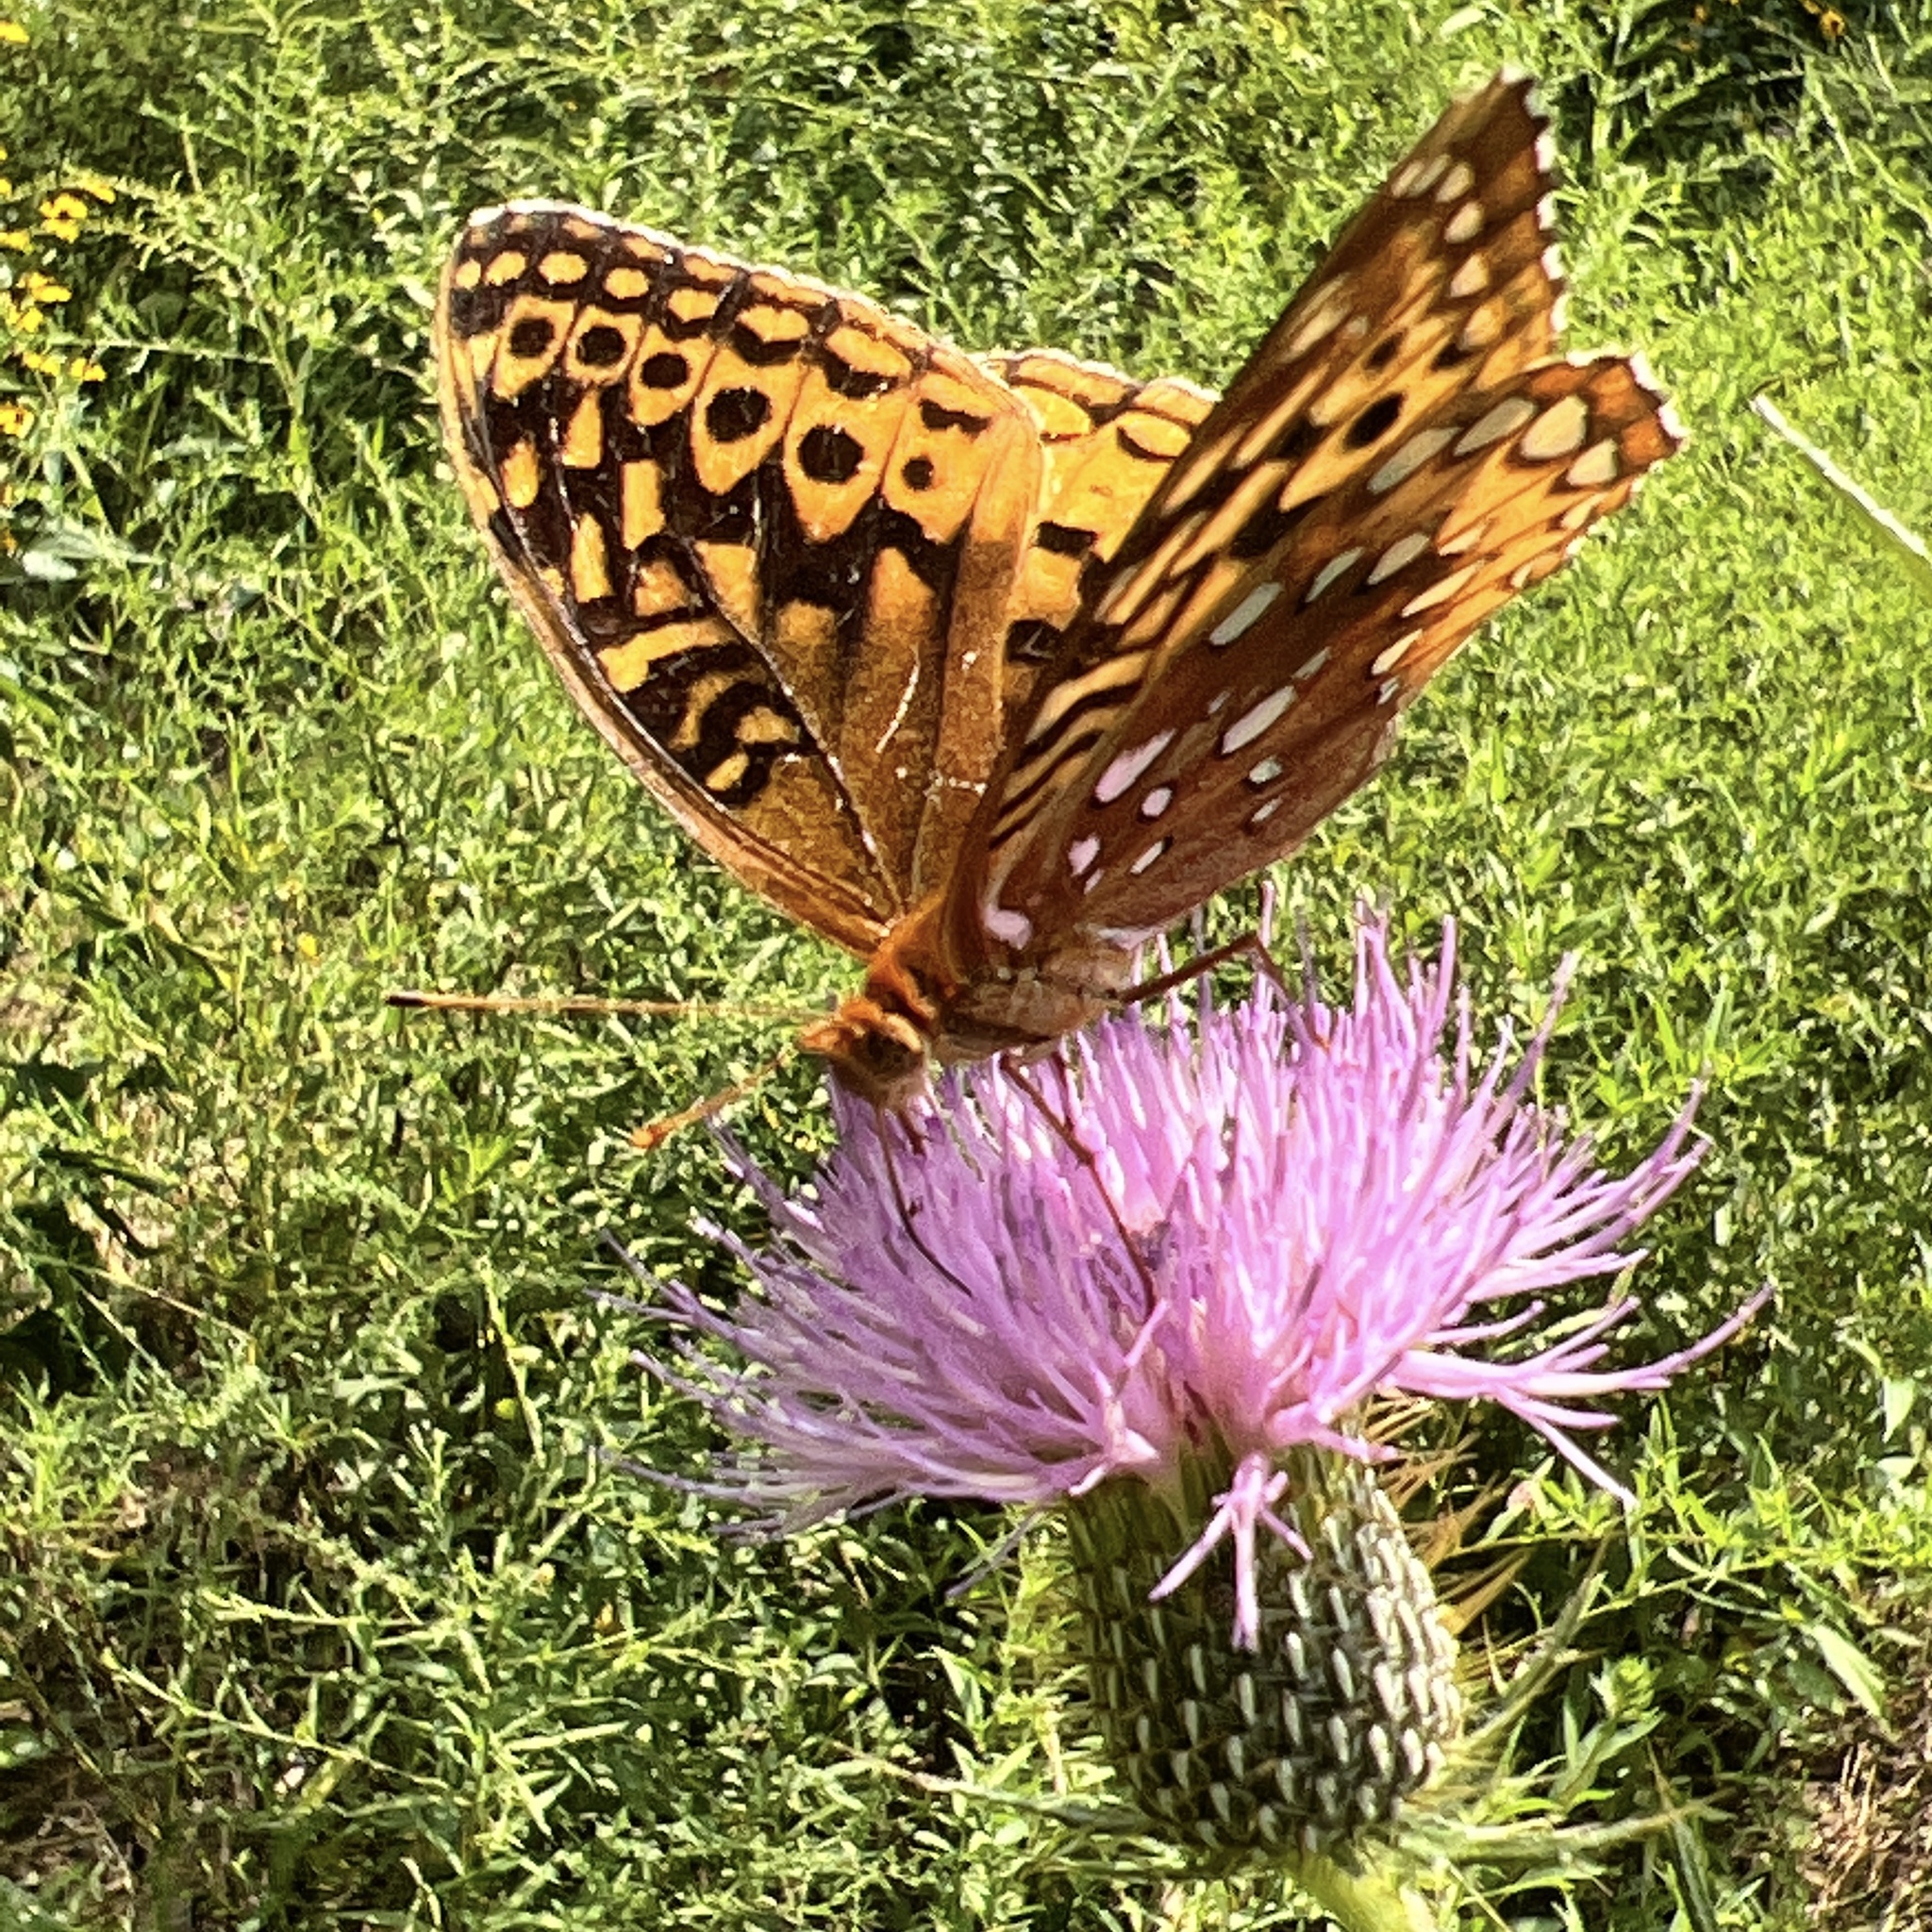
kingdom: Animalia
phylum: Arthropoda
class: Insecta
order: Lepidoptera
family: Nymphalidae
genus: Speyeria
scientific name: Speyeria cybele
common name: Great spangled fritillary
